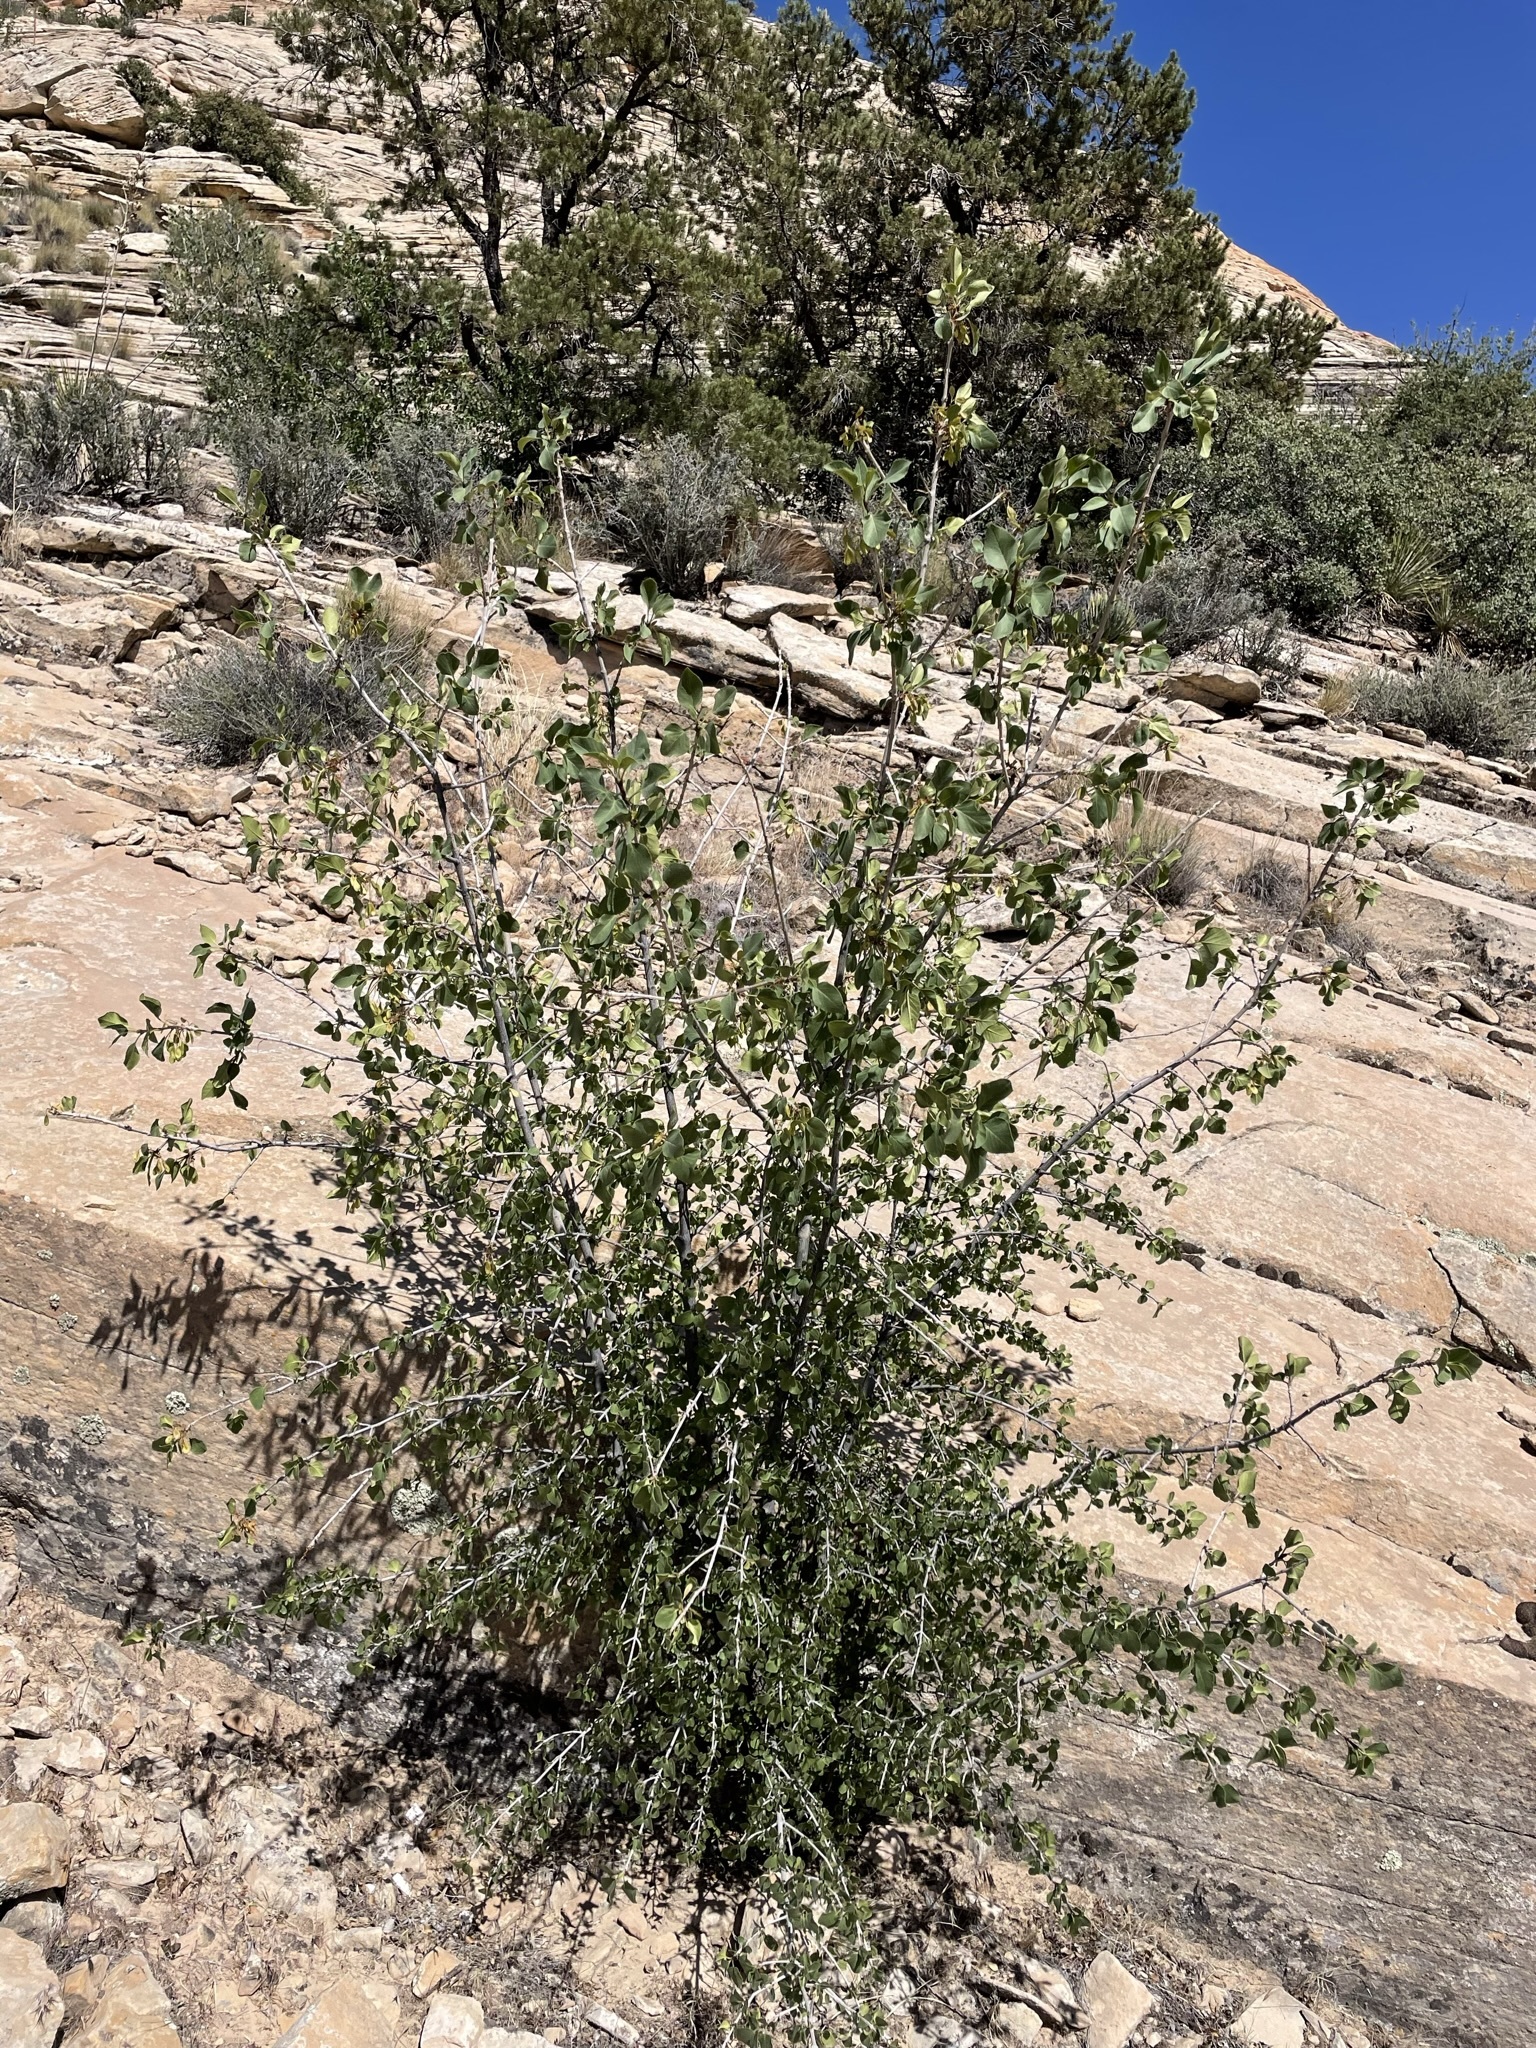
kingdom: Plantae
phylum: Tracheophyta
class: Magnoliopsida
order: Lamiales
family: Oleaceae
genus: Fraxinus
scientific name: Fraxinus anomala
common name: Utah ash
